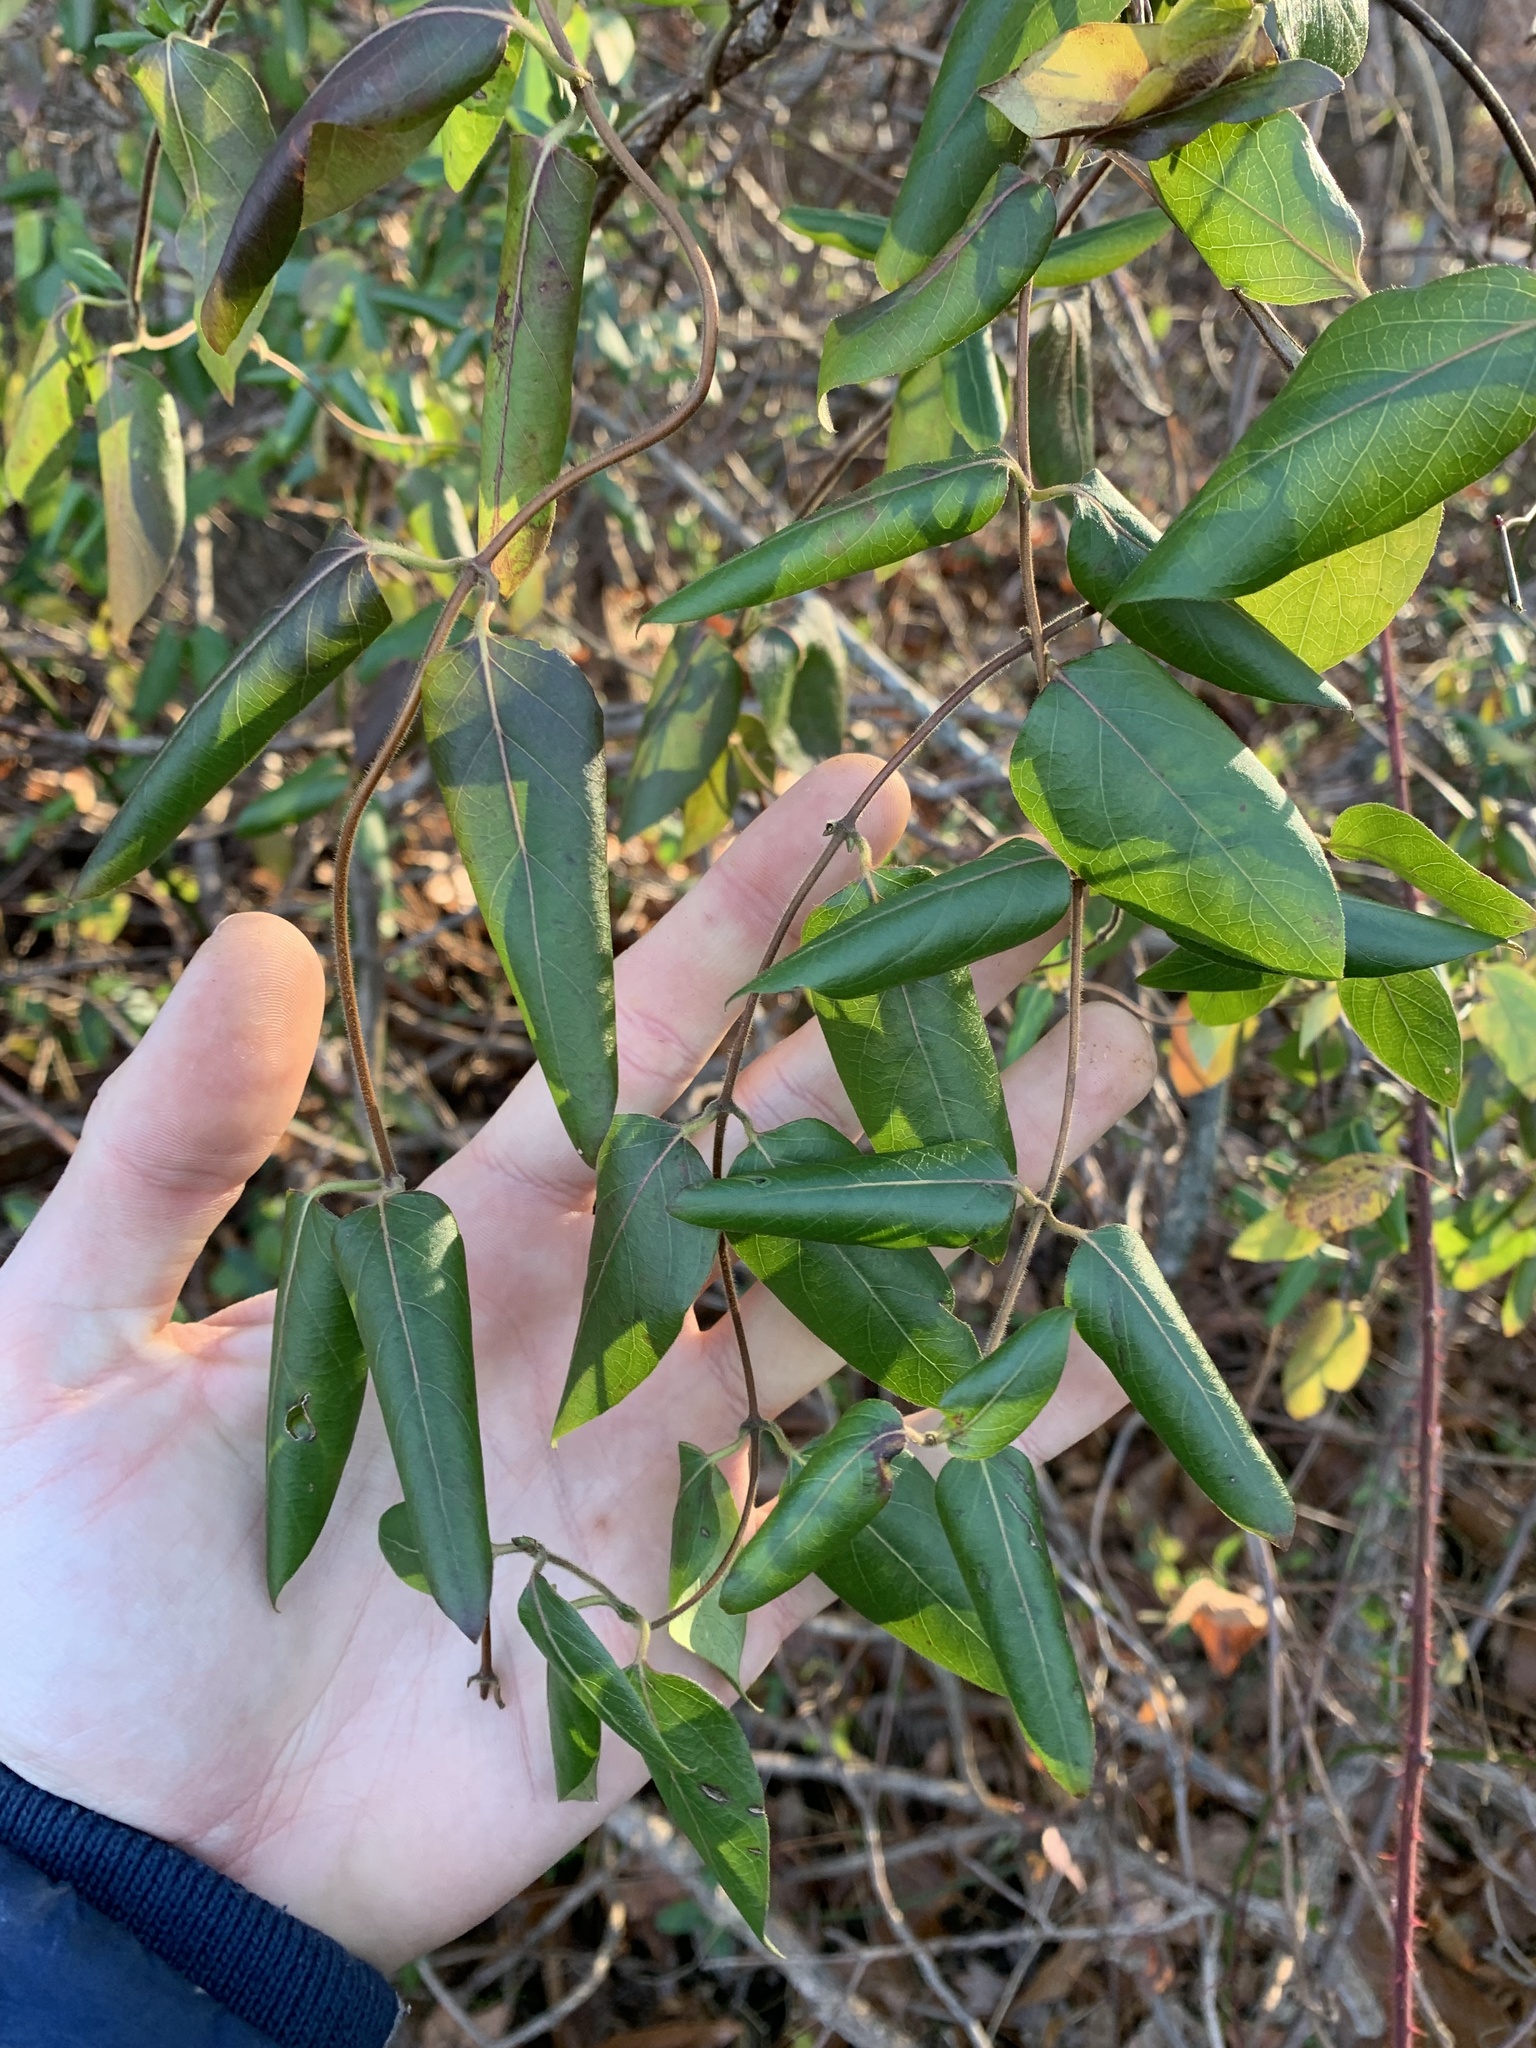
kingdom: Plantae
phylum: Tracheophyta
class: Magnoliopsida
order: Dipsacales
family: Caprifoliaceae
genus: Lonicera
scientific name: Lonicera japonica
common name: Japanese honeysuckle
